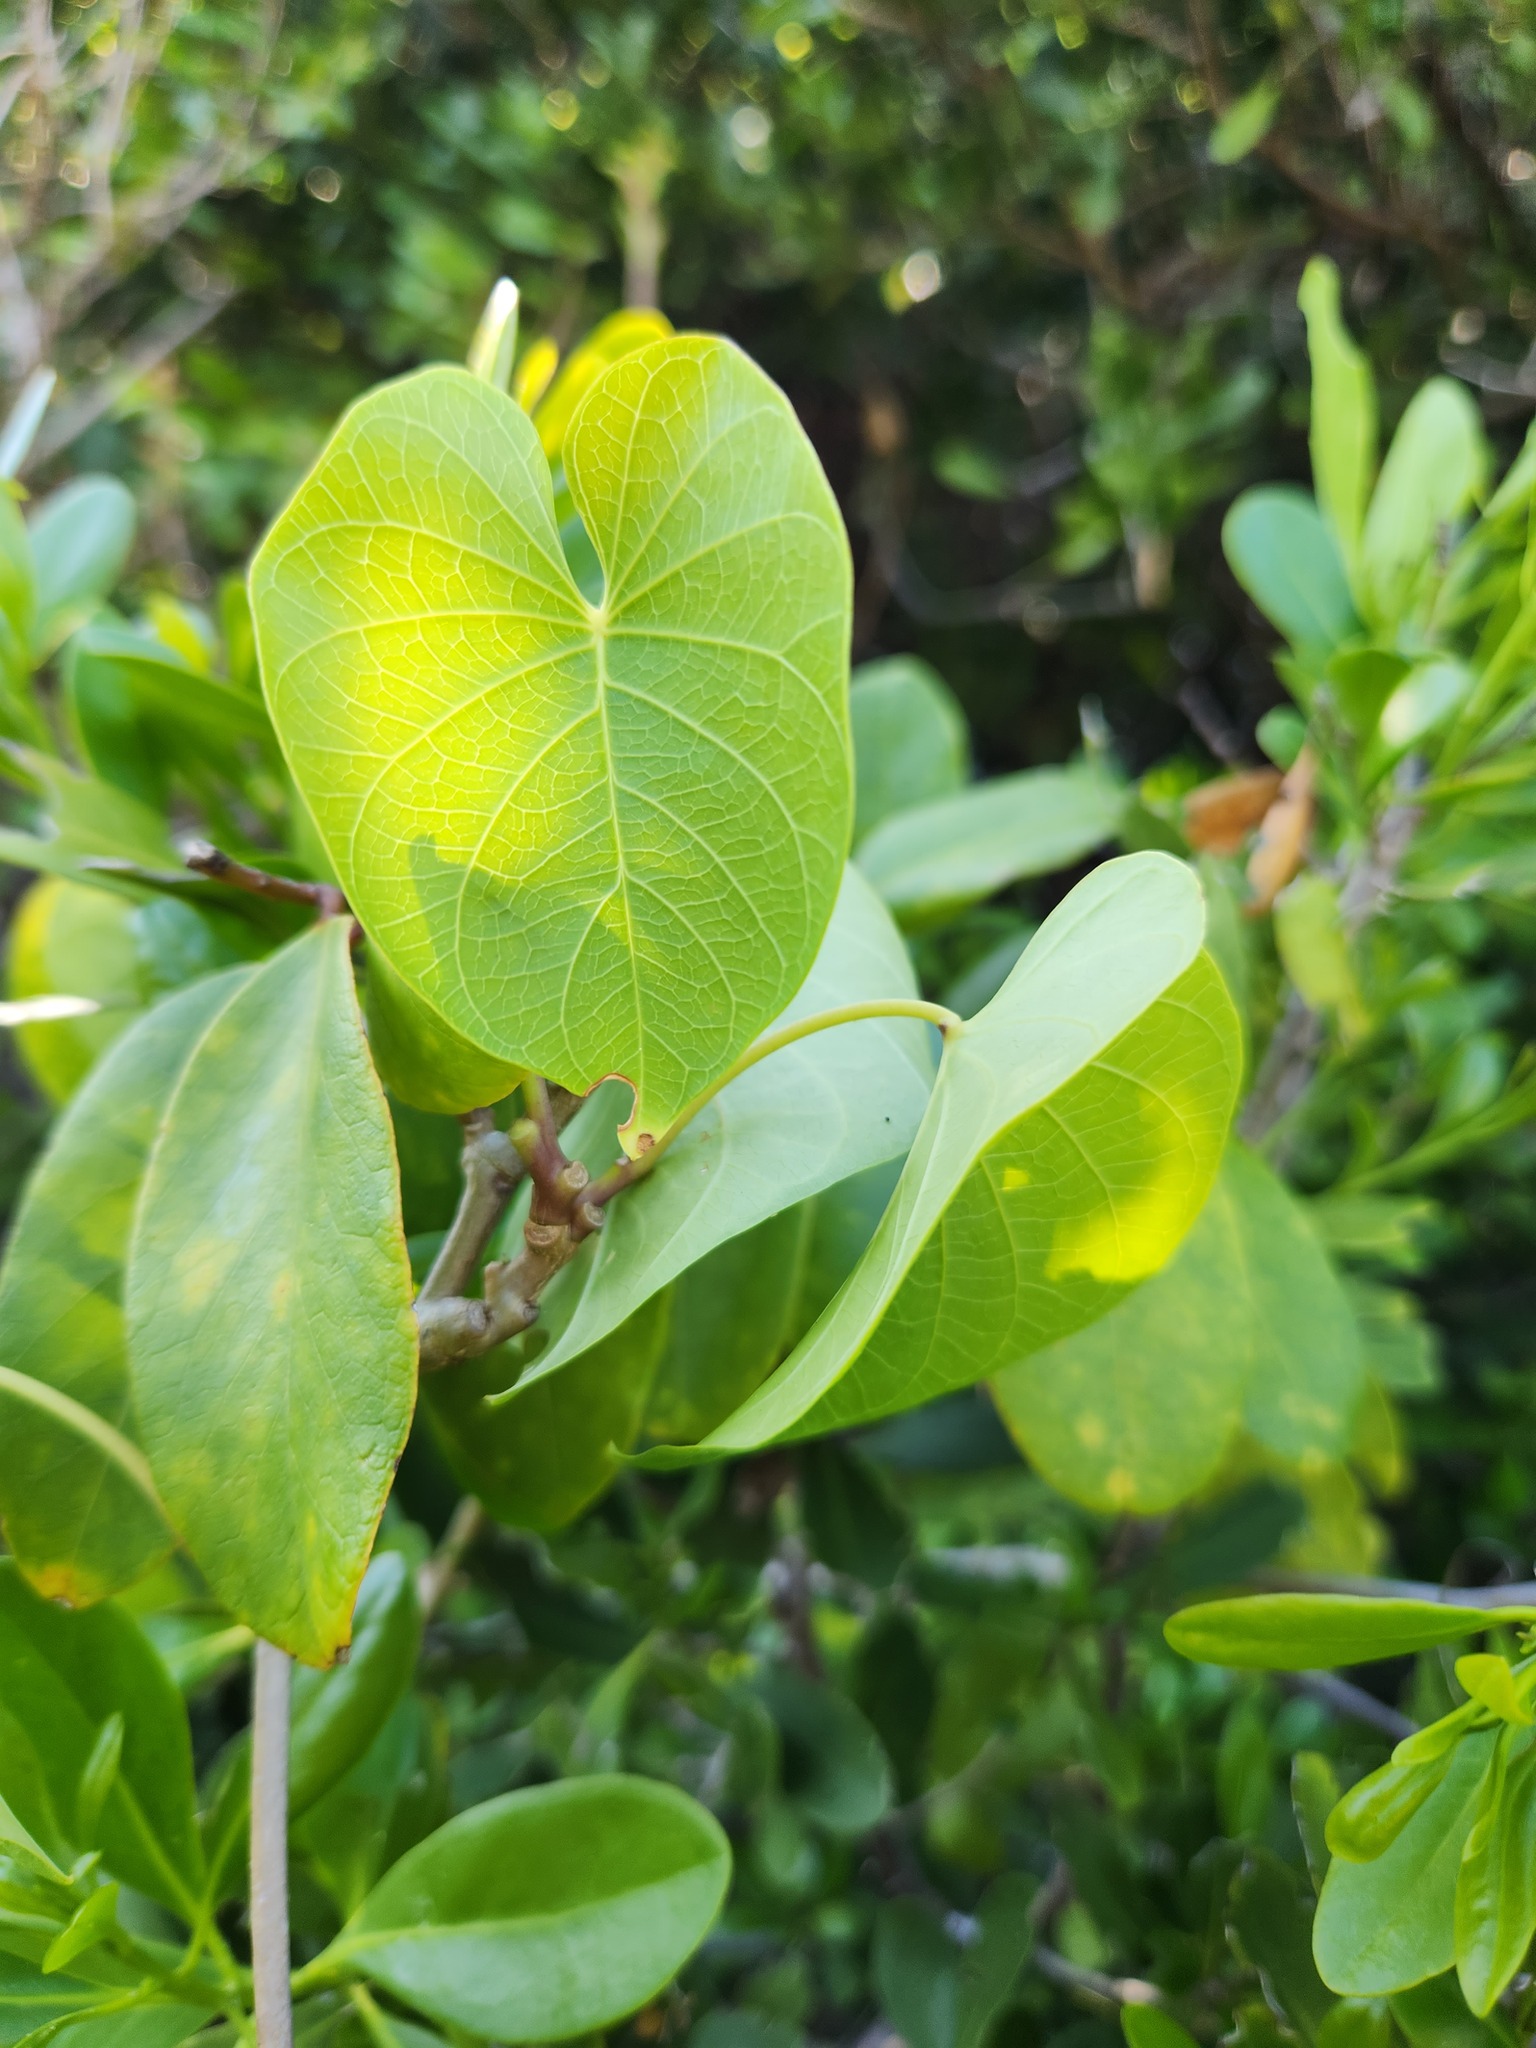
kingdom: Plantae
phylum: Tracheophyta
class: Magnoliopsida
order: Solanales
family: Convolvulaceae
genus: Ipomoea
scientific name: Ipomoea violacea
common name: Beach moonflower
